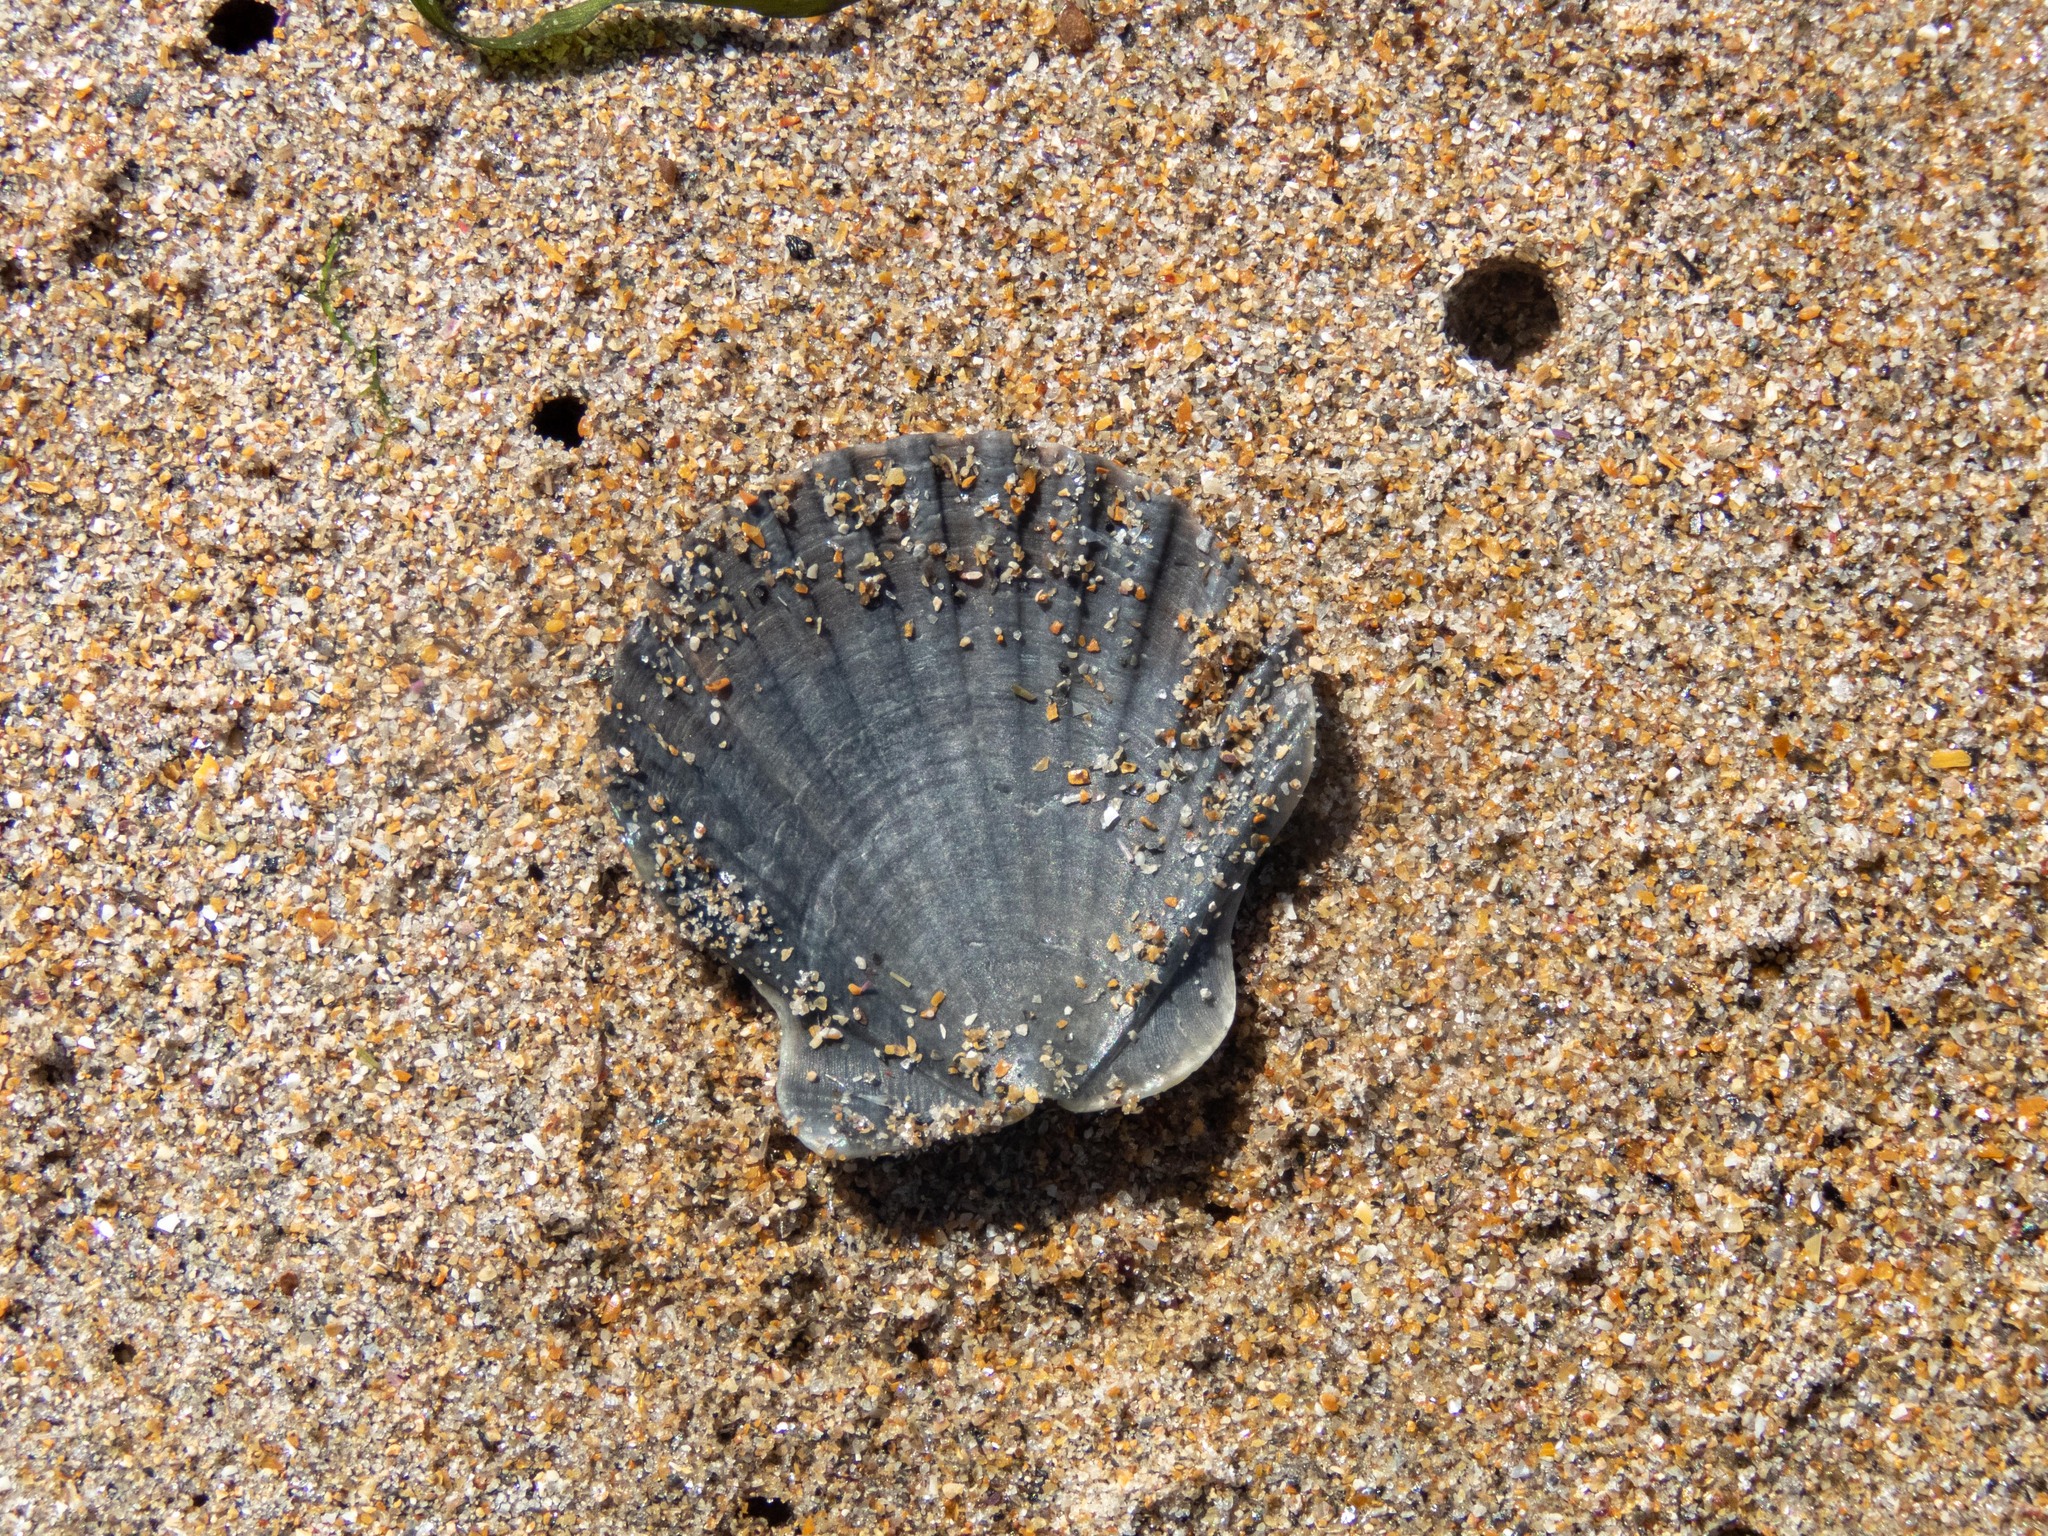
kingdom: Animalia
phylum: Mollusca
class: Bivalvia
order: Pectinida
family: Pectinidae
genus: Pecten
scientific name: Pecten maximus
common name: Great scallop
